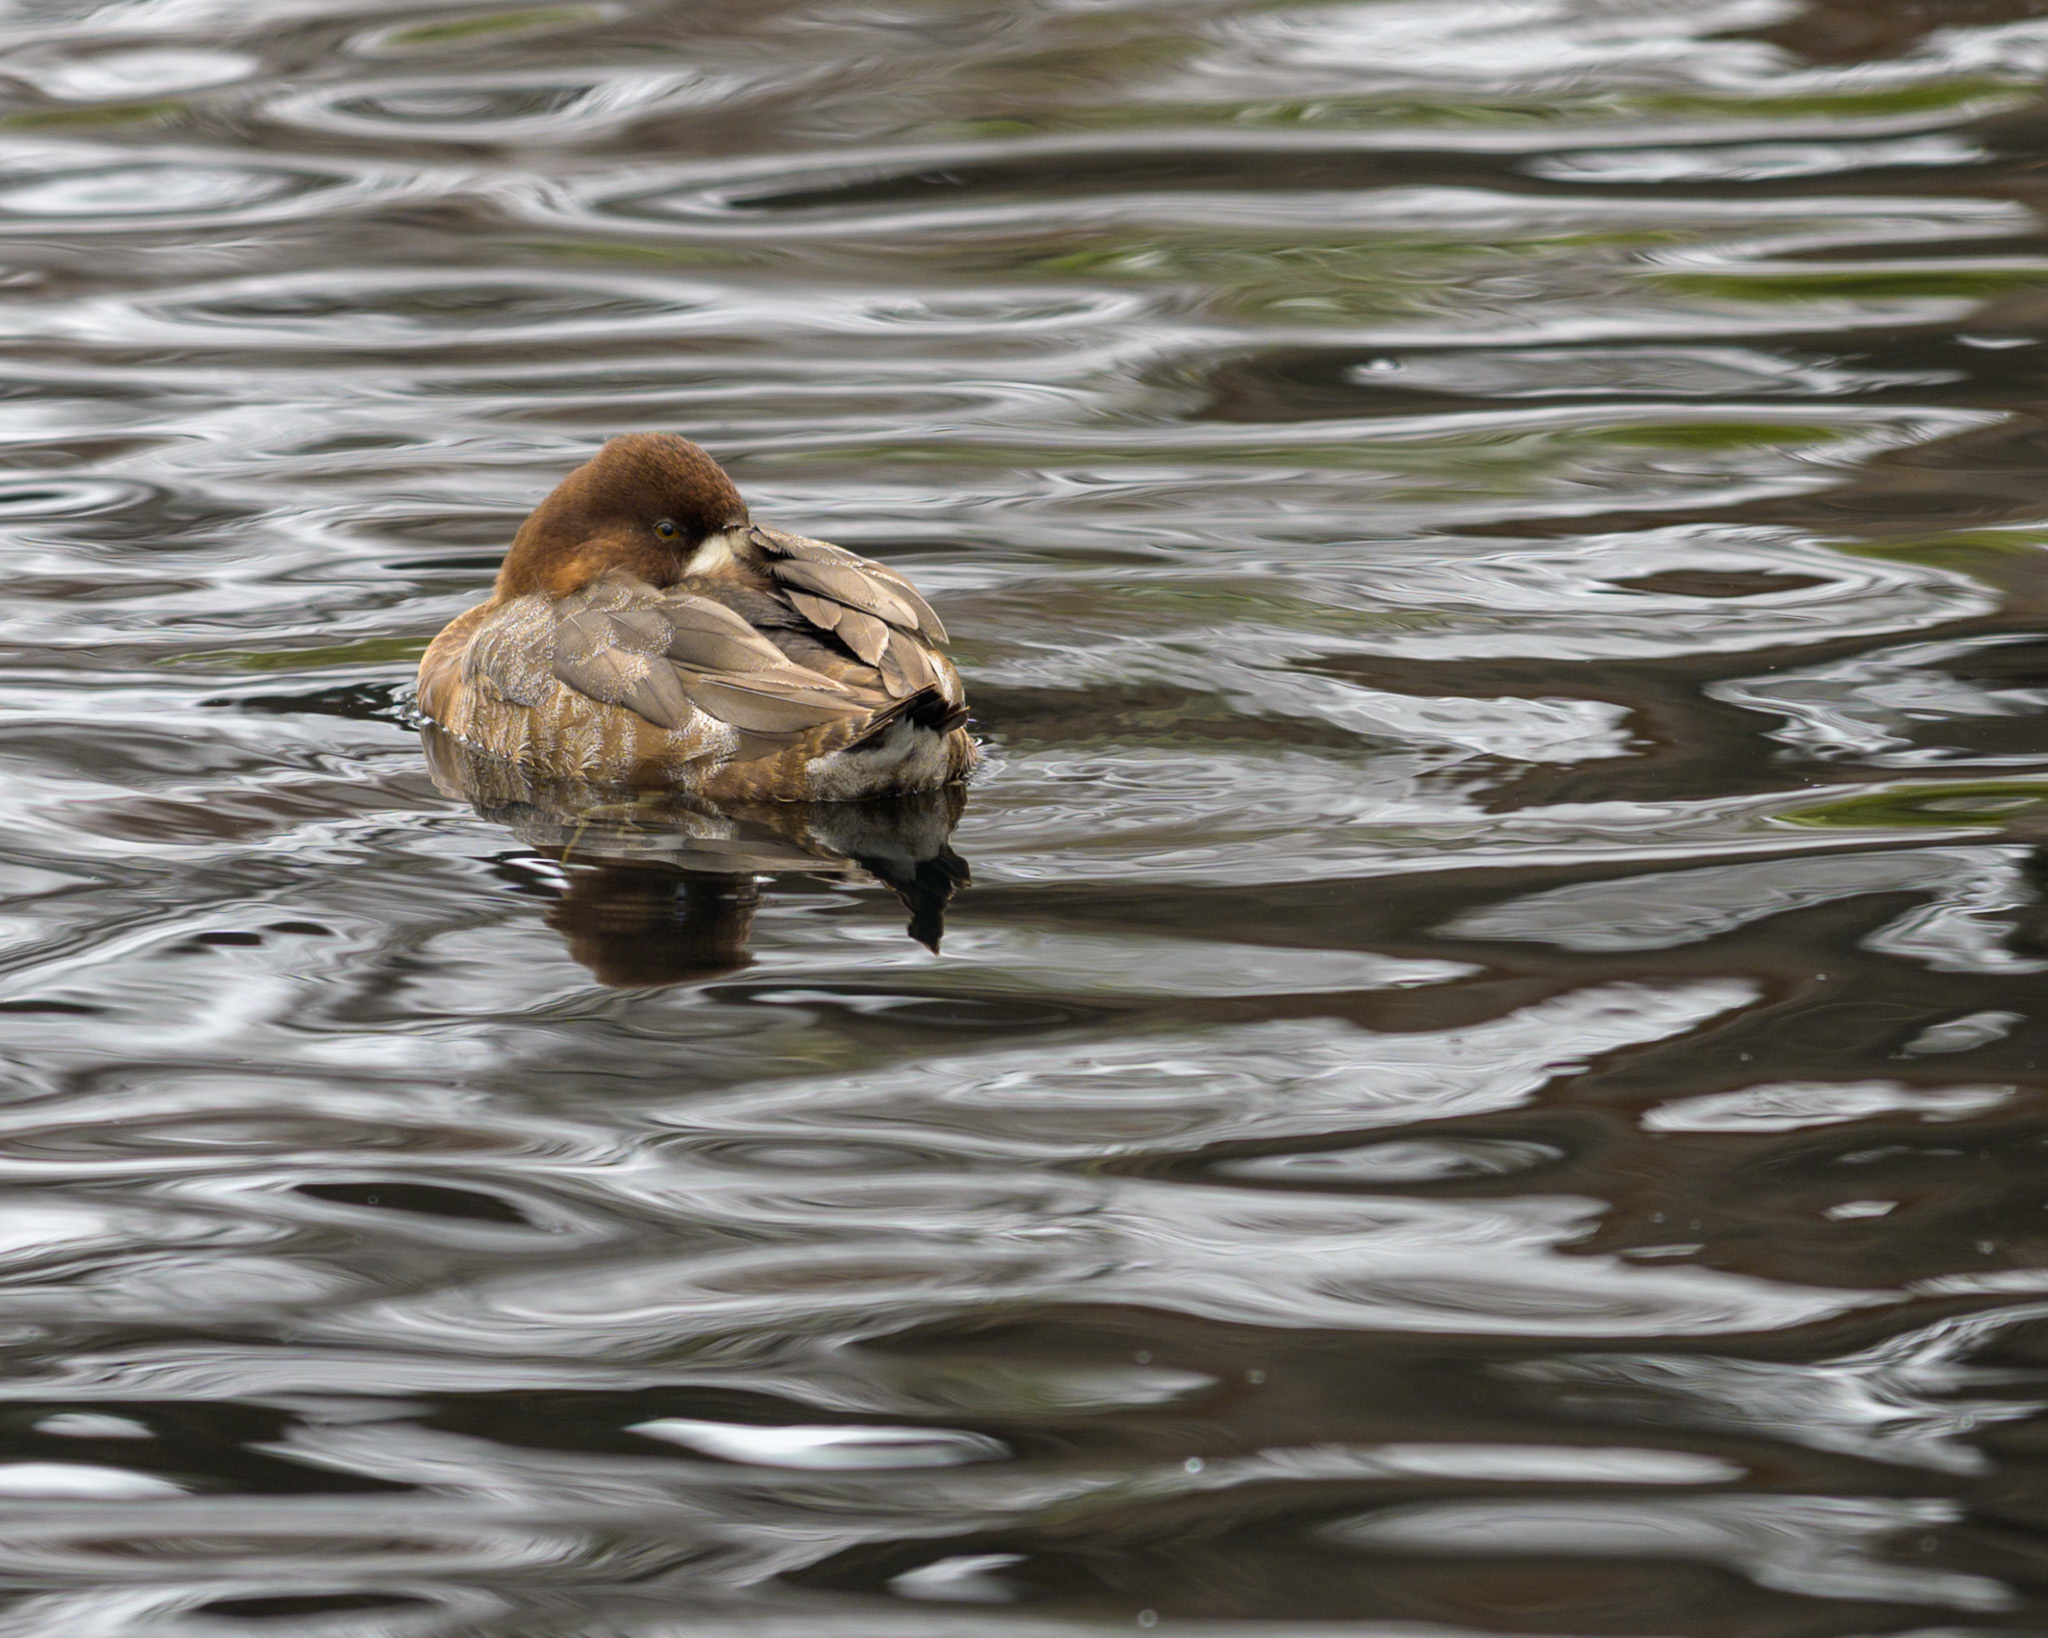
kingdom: Animalia
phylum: Chordata
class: Aves
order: Anseriformes
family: Anatidae
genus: Aythya
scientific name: Aythya affinis
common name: Lesser scaup
